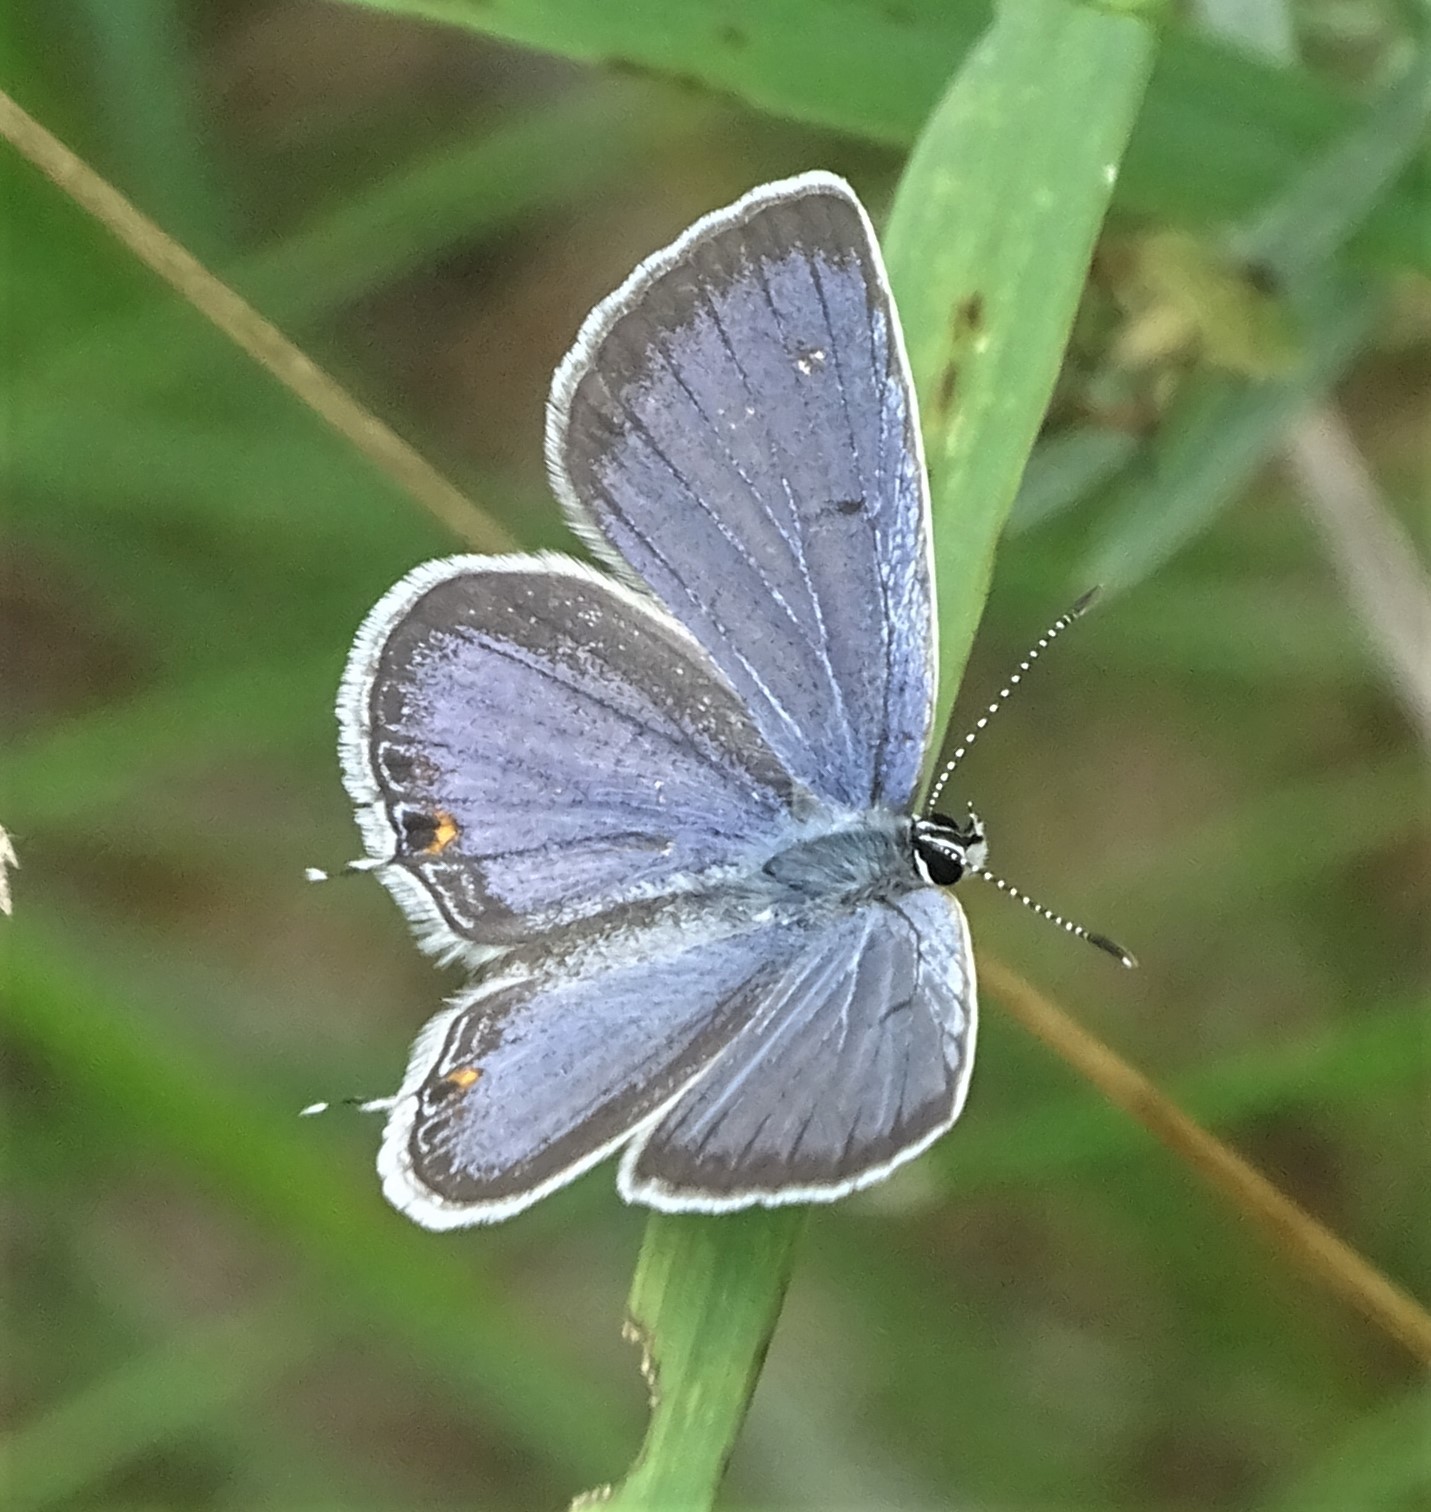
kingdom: Animalia
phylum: Arthropoda
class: Insecta
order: Lepidoptera
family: Lycaenidae
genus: Elkalyce
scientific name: Elkalyce comyntas
